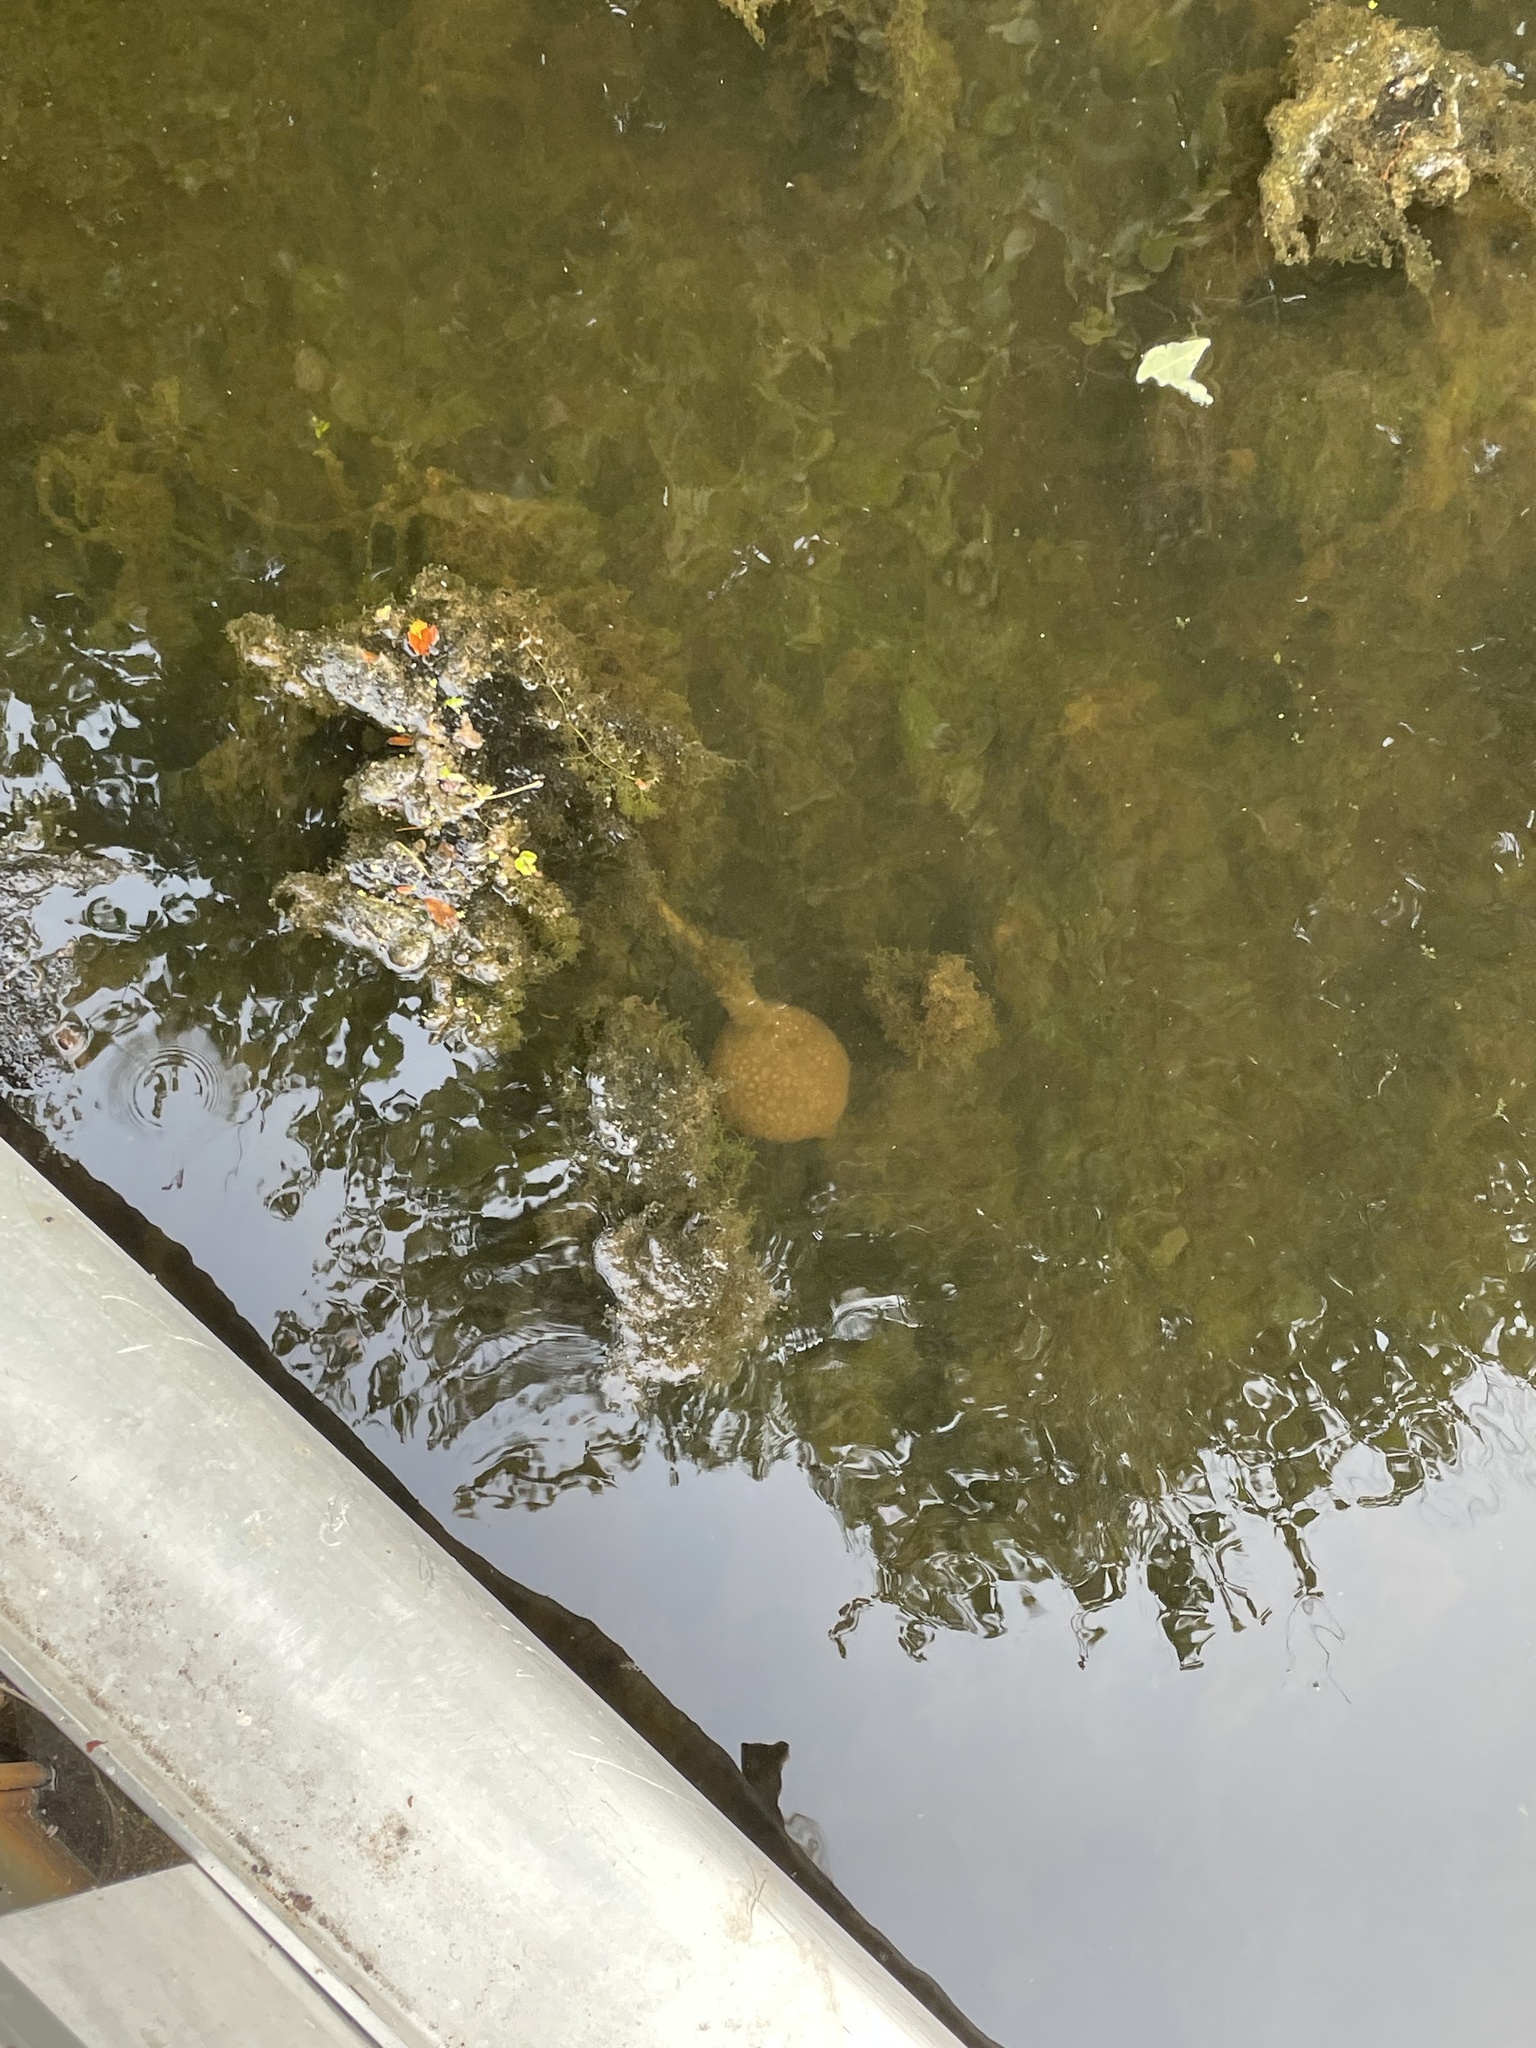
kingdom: Animalia
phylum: Bryozoa
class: Phylactolaemata
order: Plumatellida
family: Pectinatellidae
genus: Pectinatella
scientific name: Pectinatella magnifica
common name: Magnificent bryozoan
